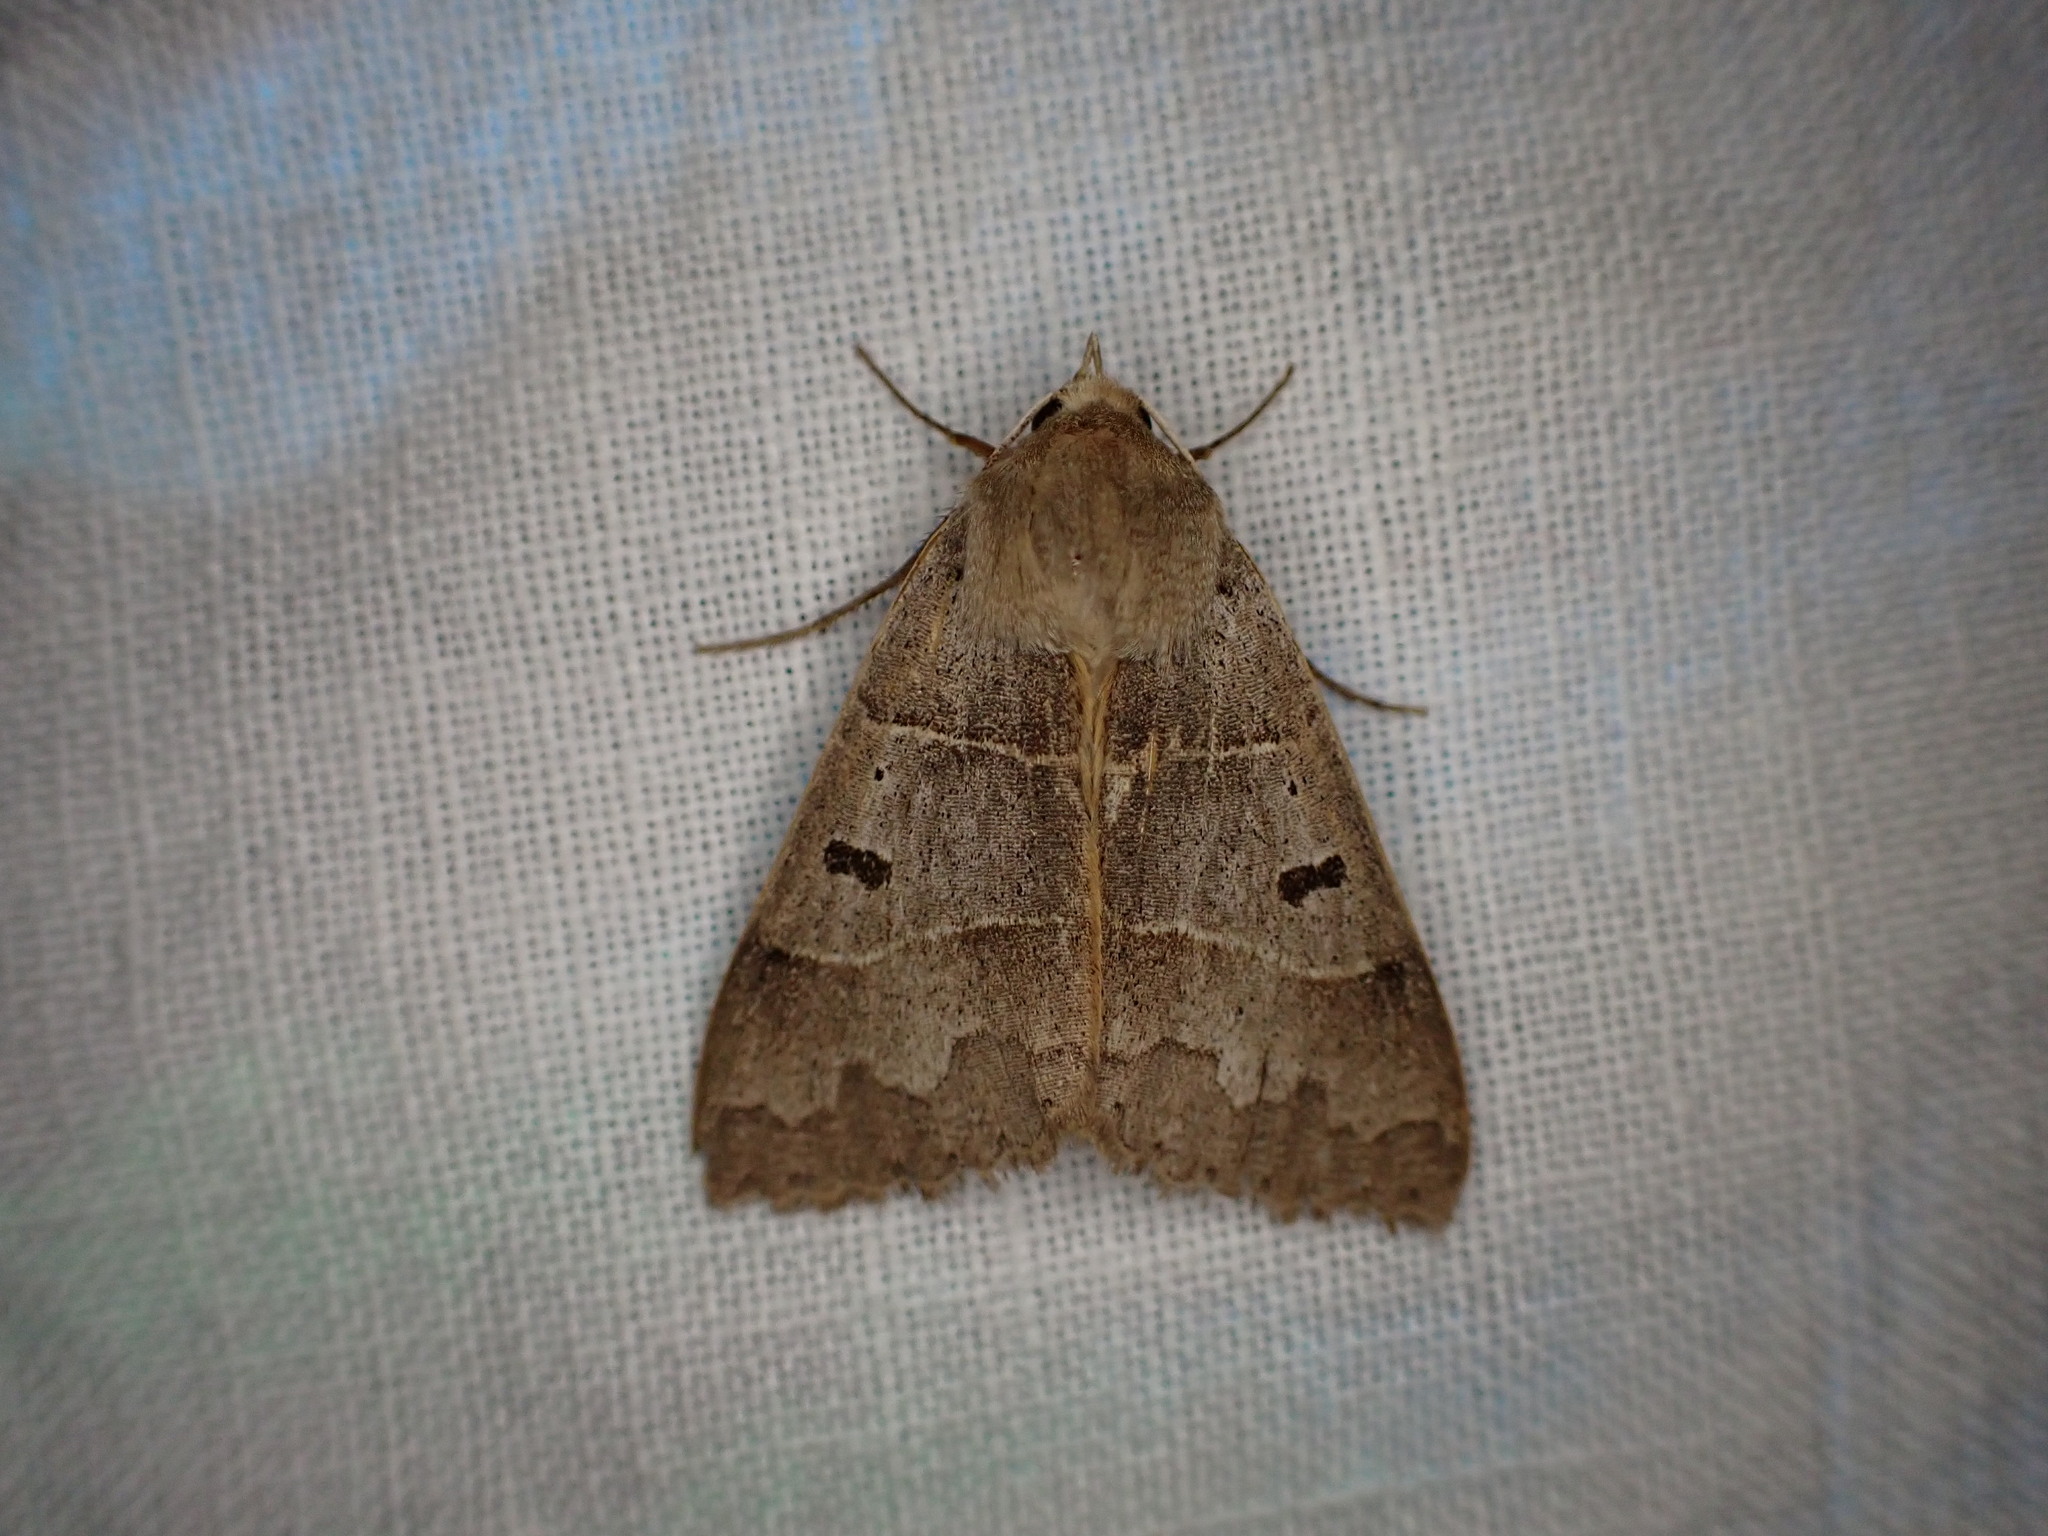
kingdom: Animalia
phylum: Arthropoda
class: Insecta
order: Lepidoptera
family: Erebidae
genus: Minucia
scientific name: Minucia lunaris
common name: Lunar double-stripe
